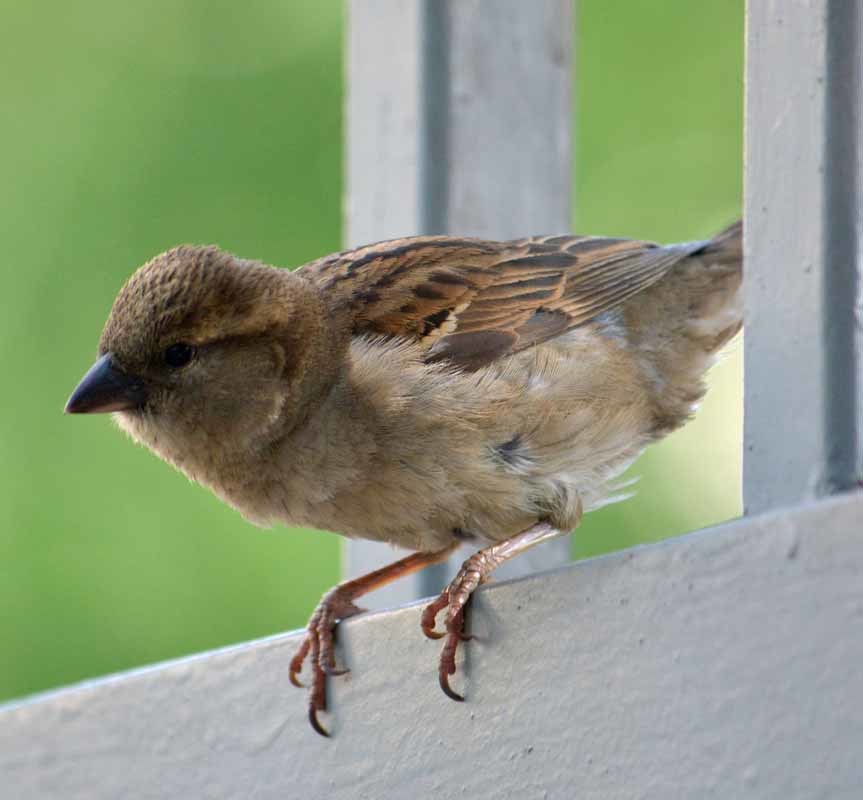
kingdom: Animalia
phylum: Chordata
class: Aves
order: Passeriformes
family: Passeridae
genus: Passer
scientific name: Passer domesticus
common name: House sparrow
